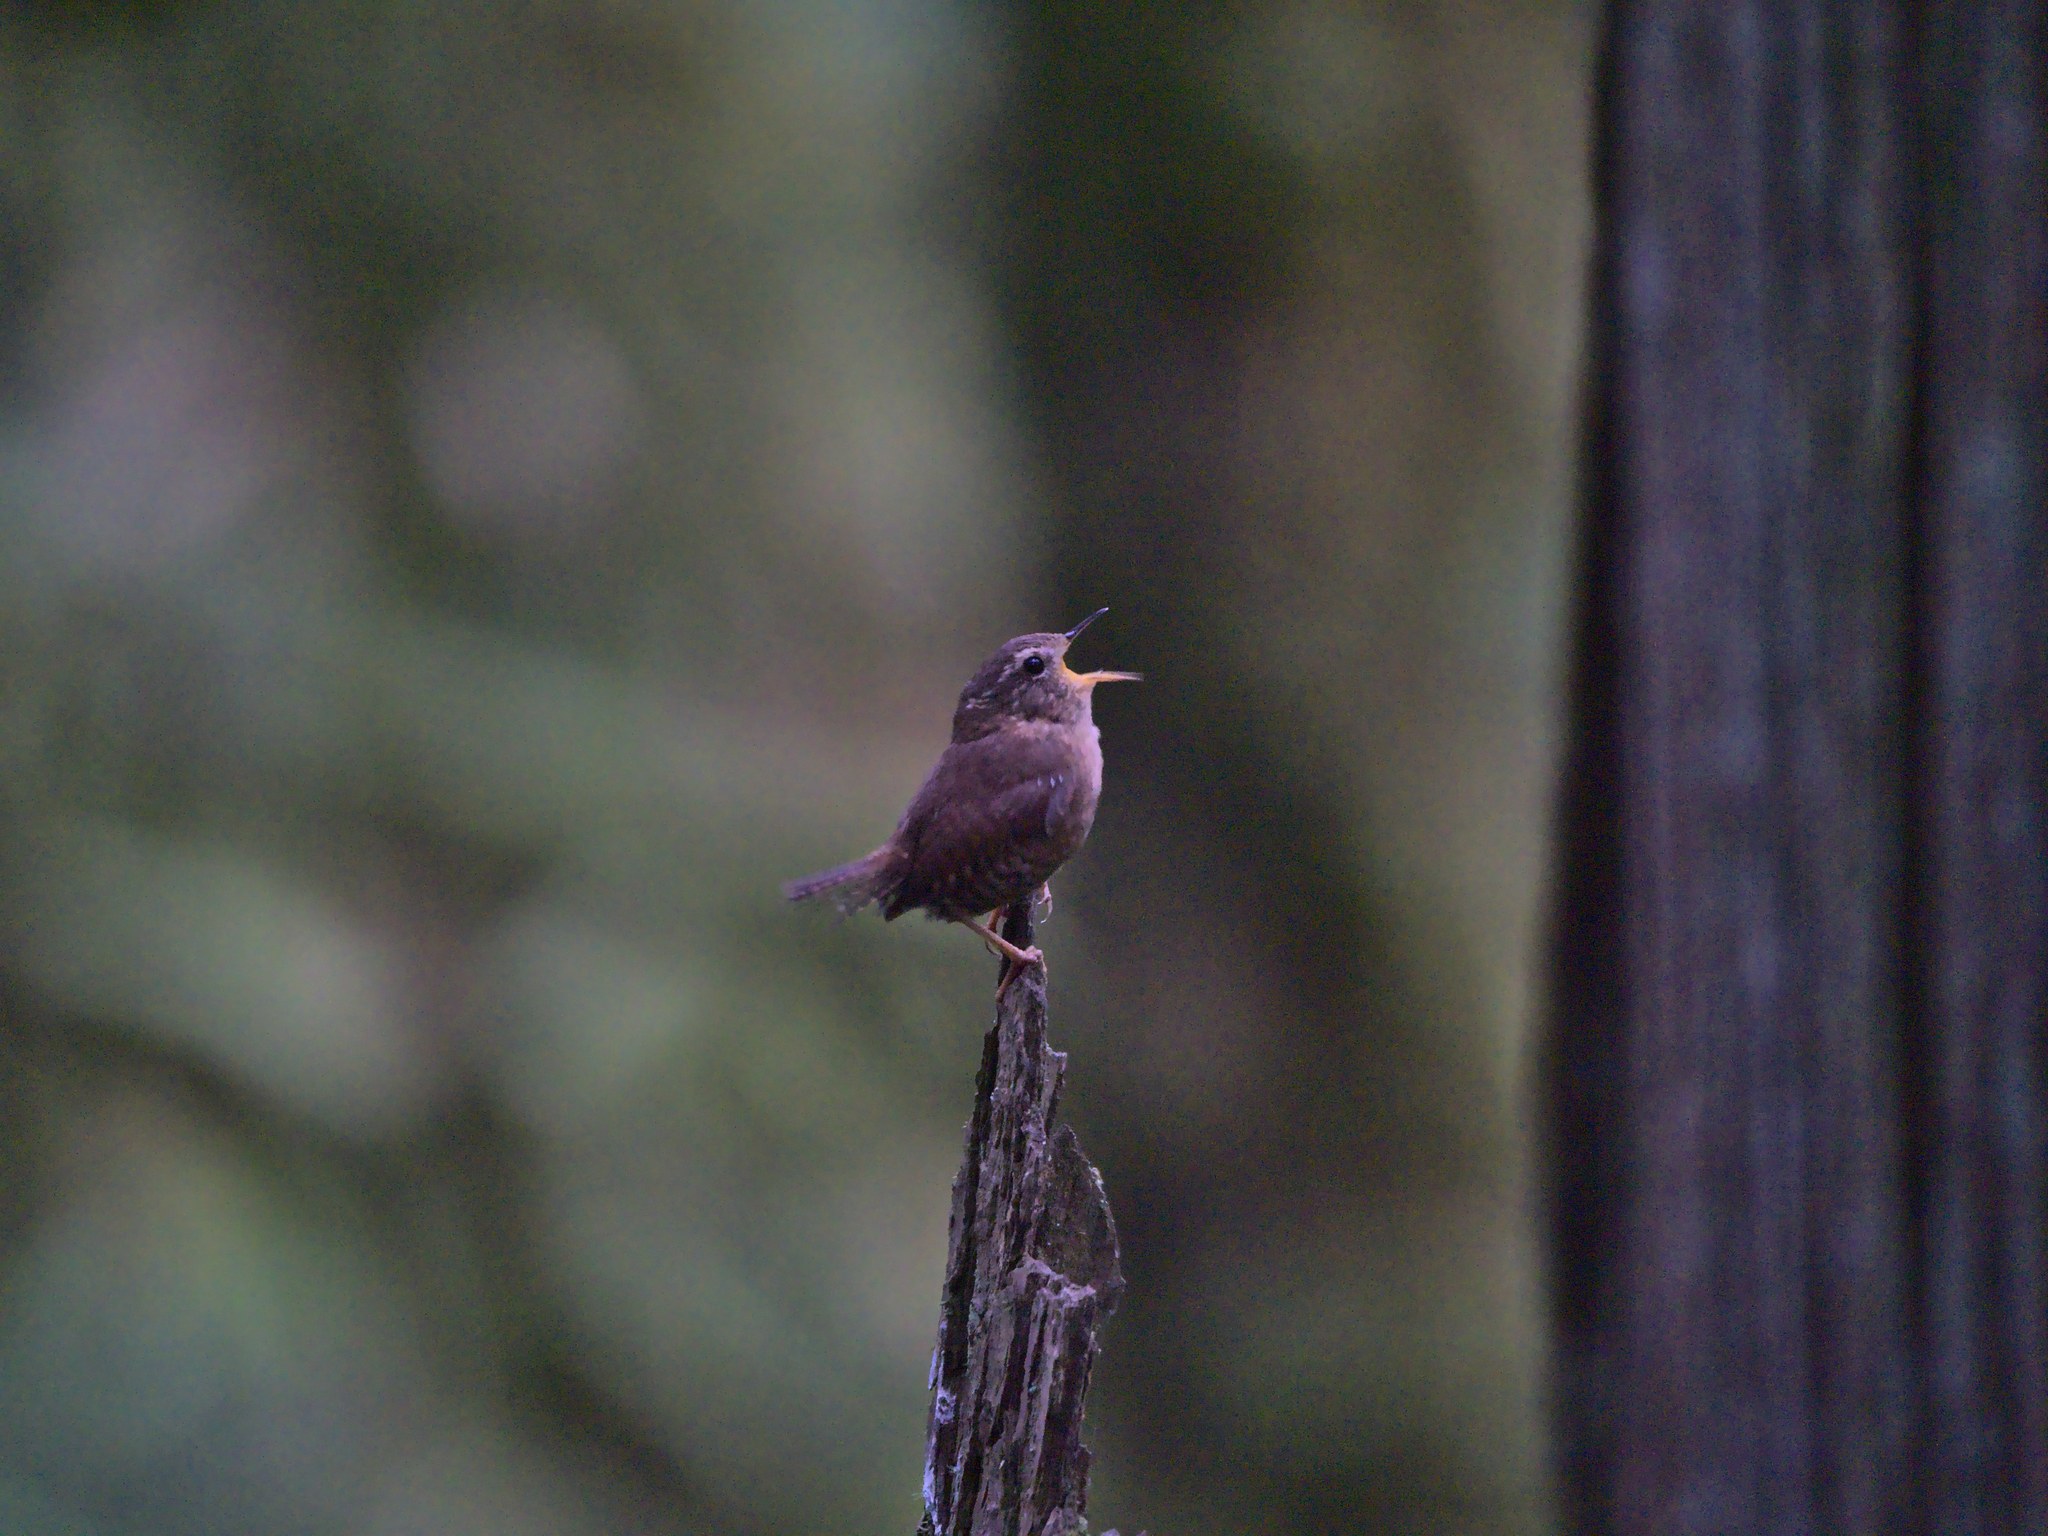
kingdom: Animalia
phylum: Chordata
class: Aves
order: Passeriformes
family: Troglodytidae
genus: Troglodytes
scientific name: Troglodytes pacificus
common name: Pacific wren
